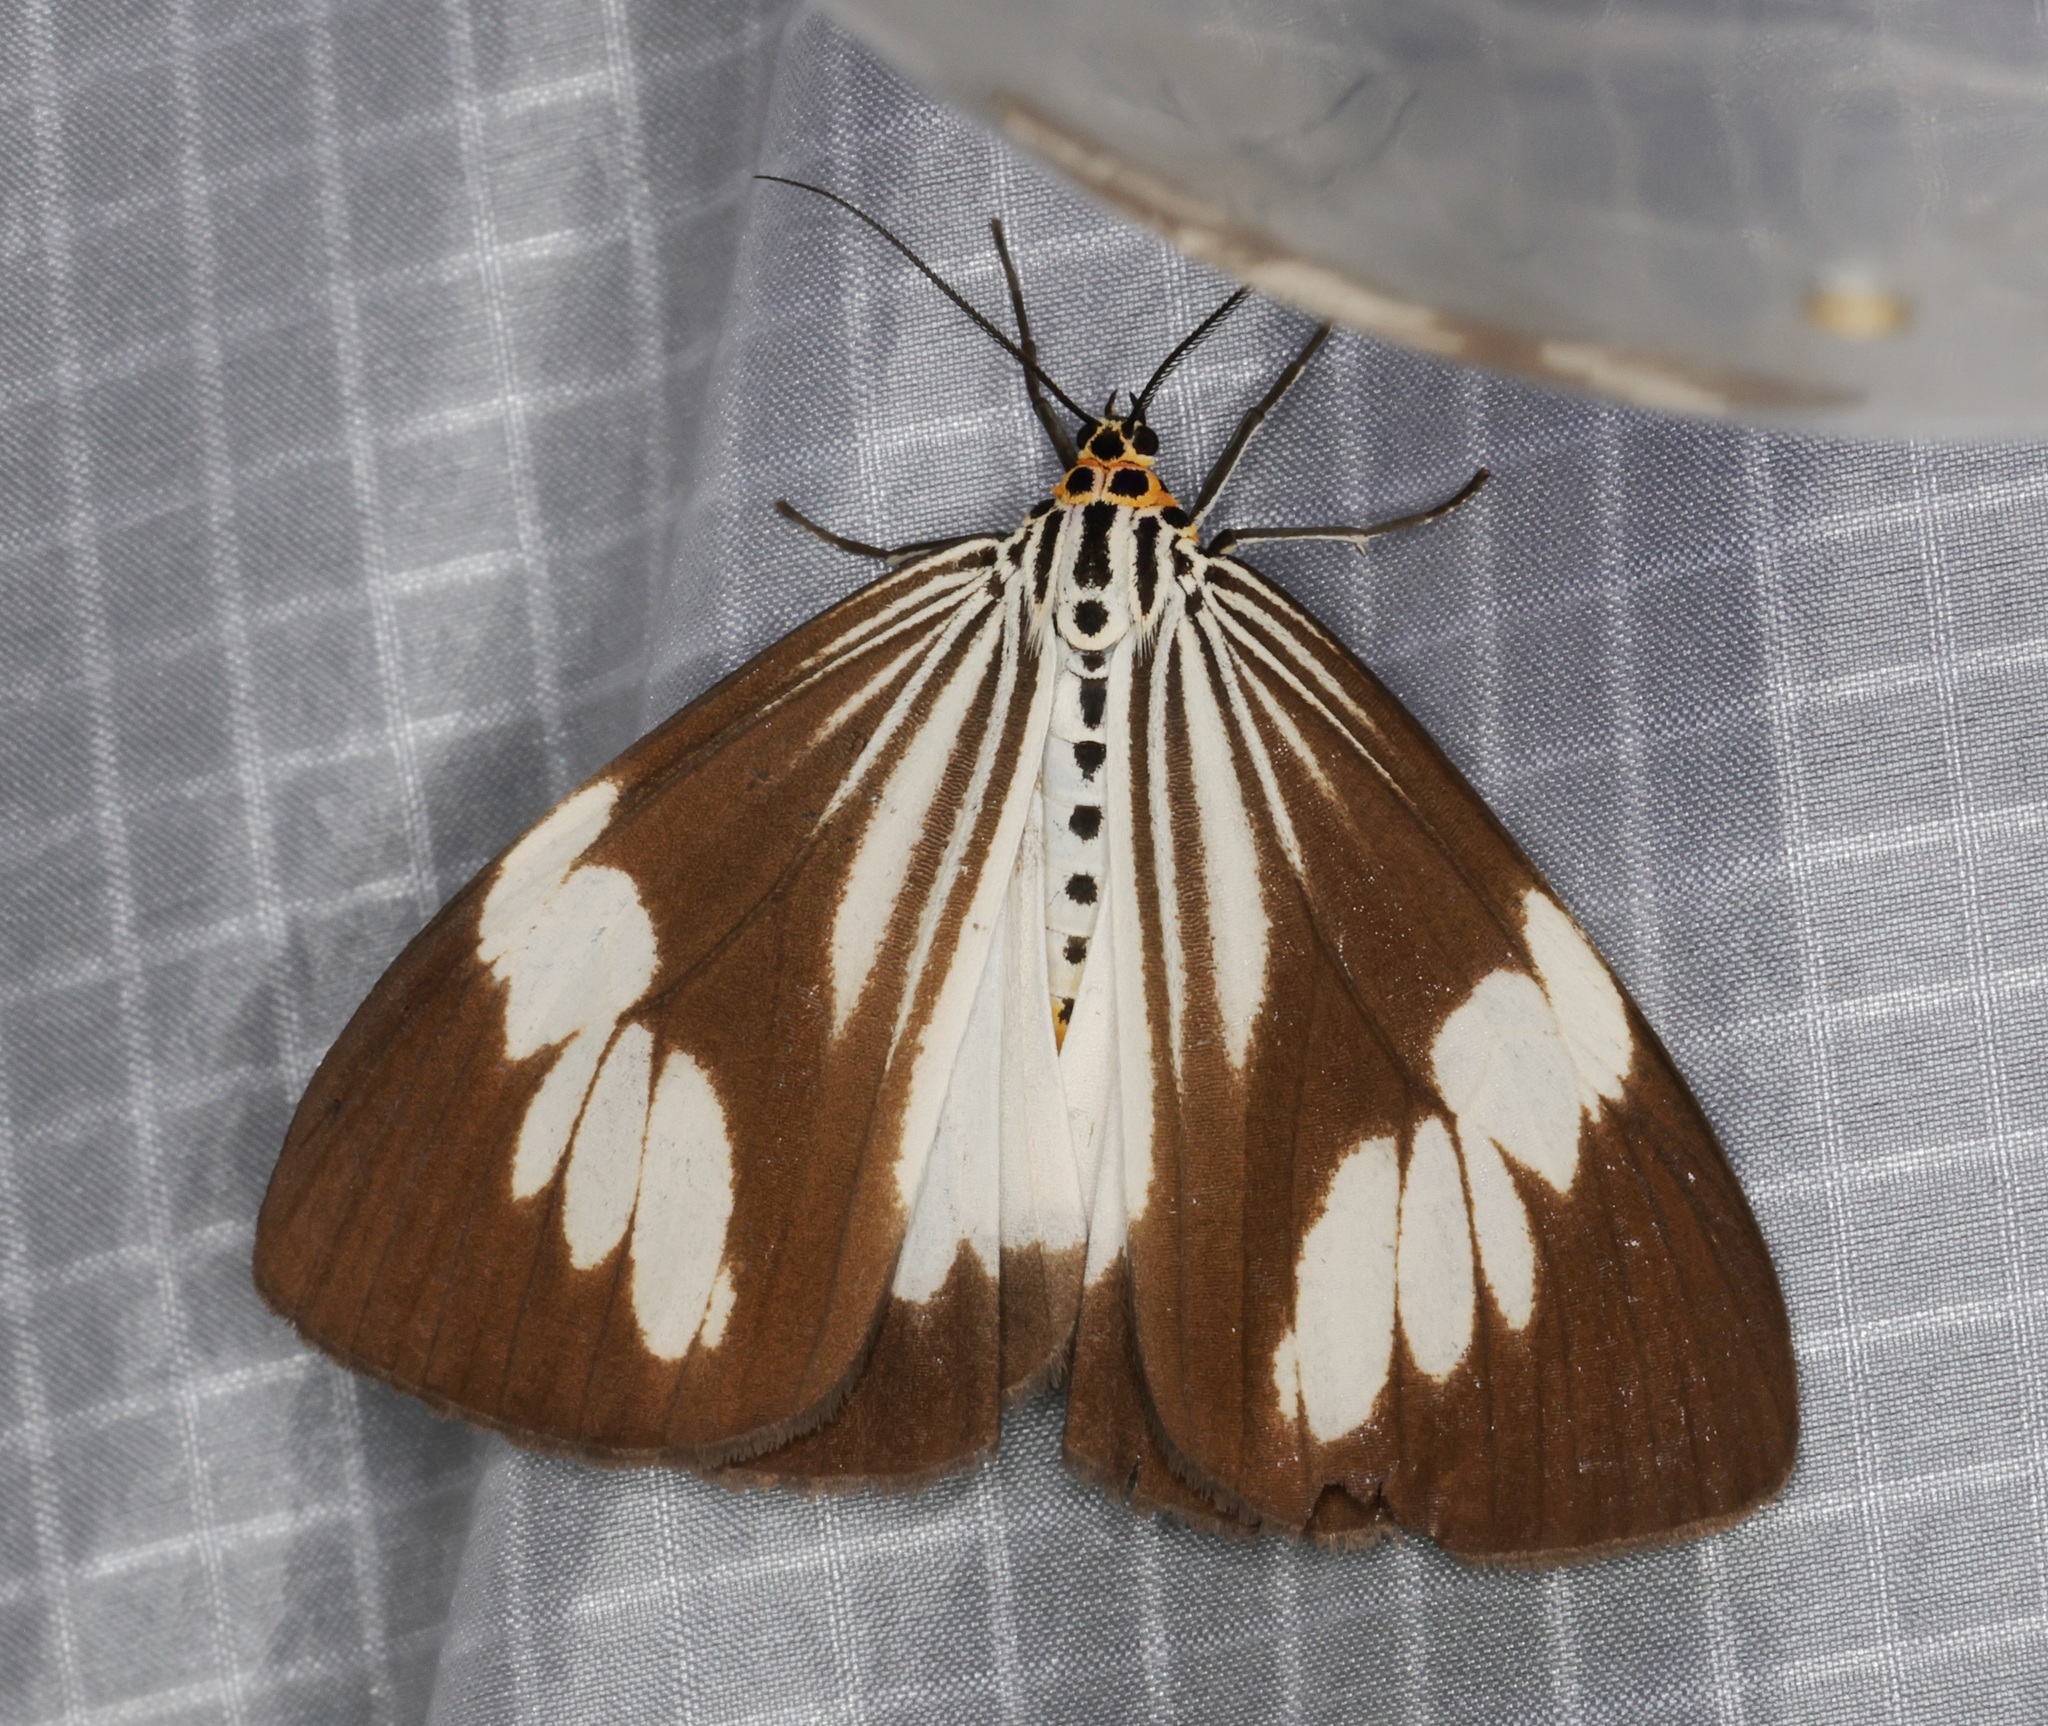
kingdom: Animalia
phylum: Arthropoda
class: Insecta
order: Lepidoptera
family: Erebidae
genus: Nyctemera
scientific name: Nyctemera tripunctaria
